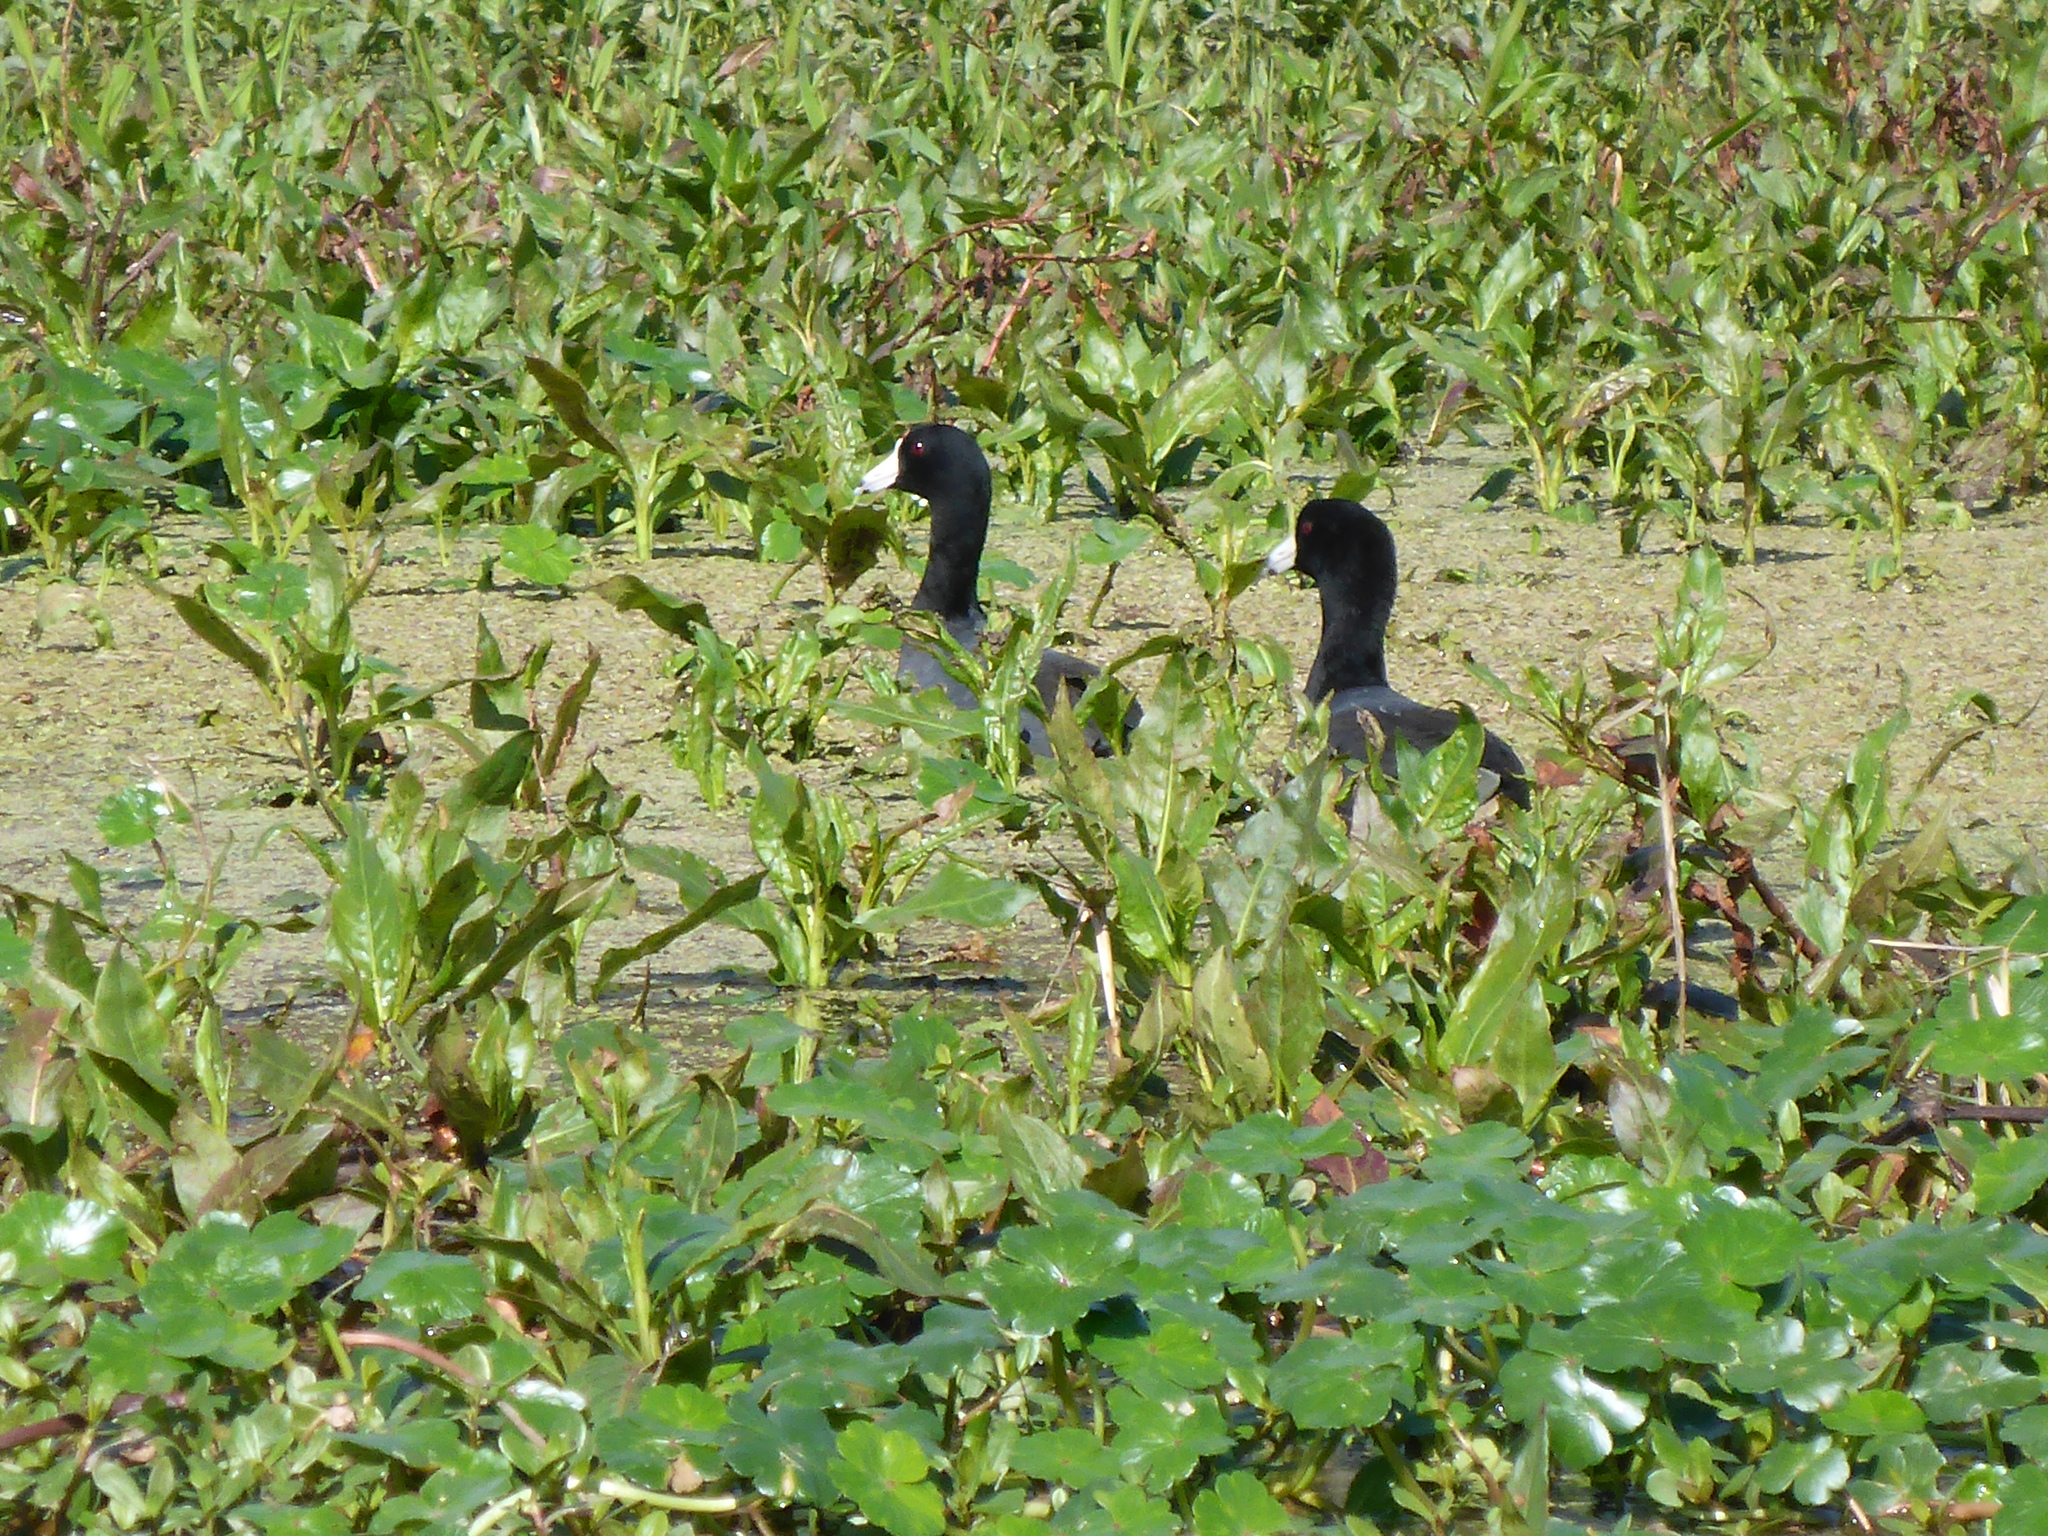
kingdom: Animalia
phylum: Chordata
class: Aves
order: Gruiformes
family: Rallidae
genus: Fulica
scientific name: Fulica americana
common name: American coot
